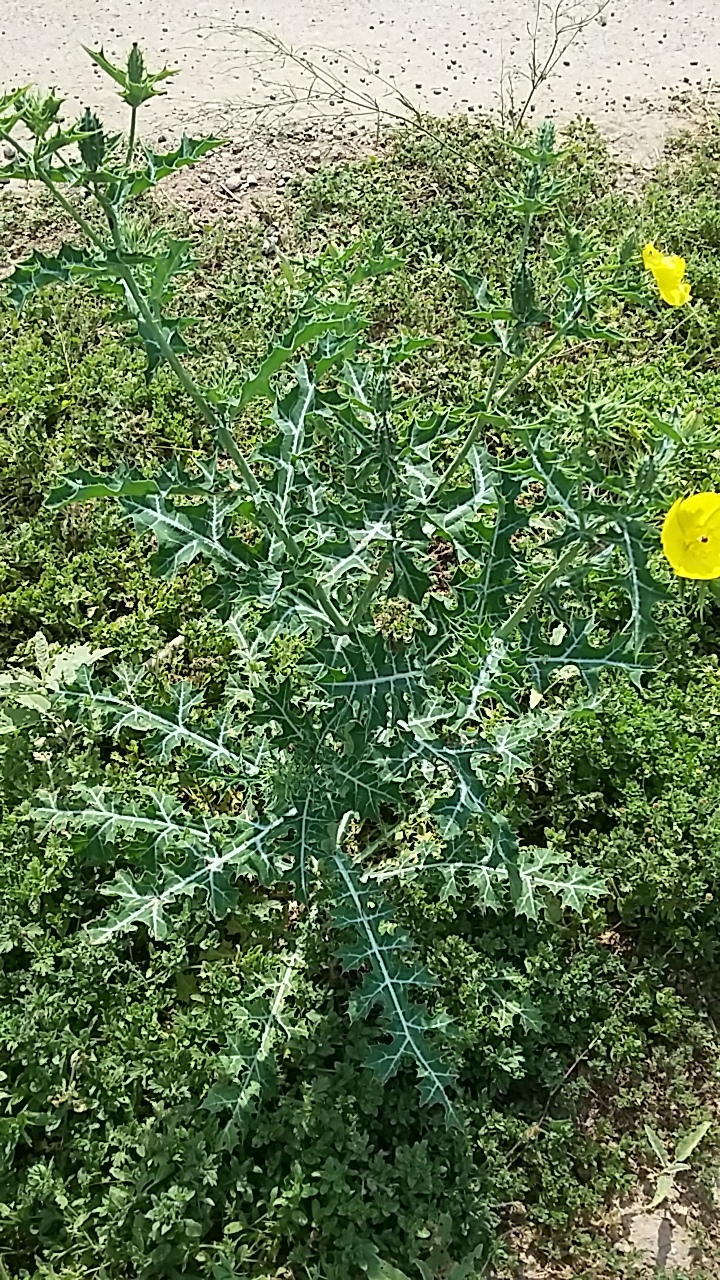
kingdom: Plantae
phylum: Tracheophyta
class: Magnoliopsida
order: Ranunculales
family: Papaveraceae
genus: Argemone
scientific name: Argemone mexicana
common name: Mexican poppy
